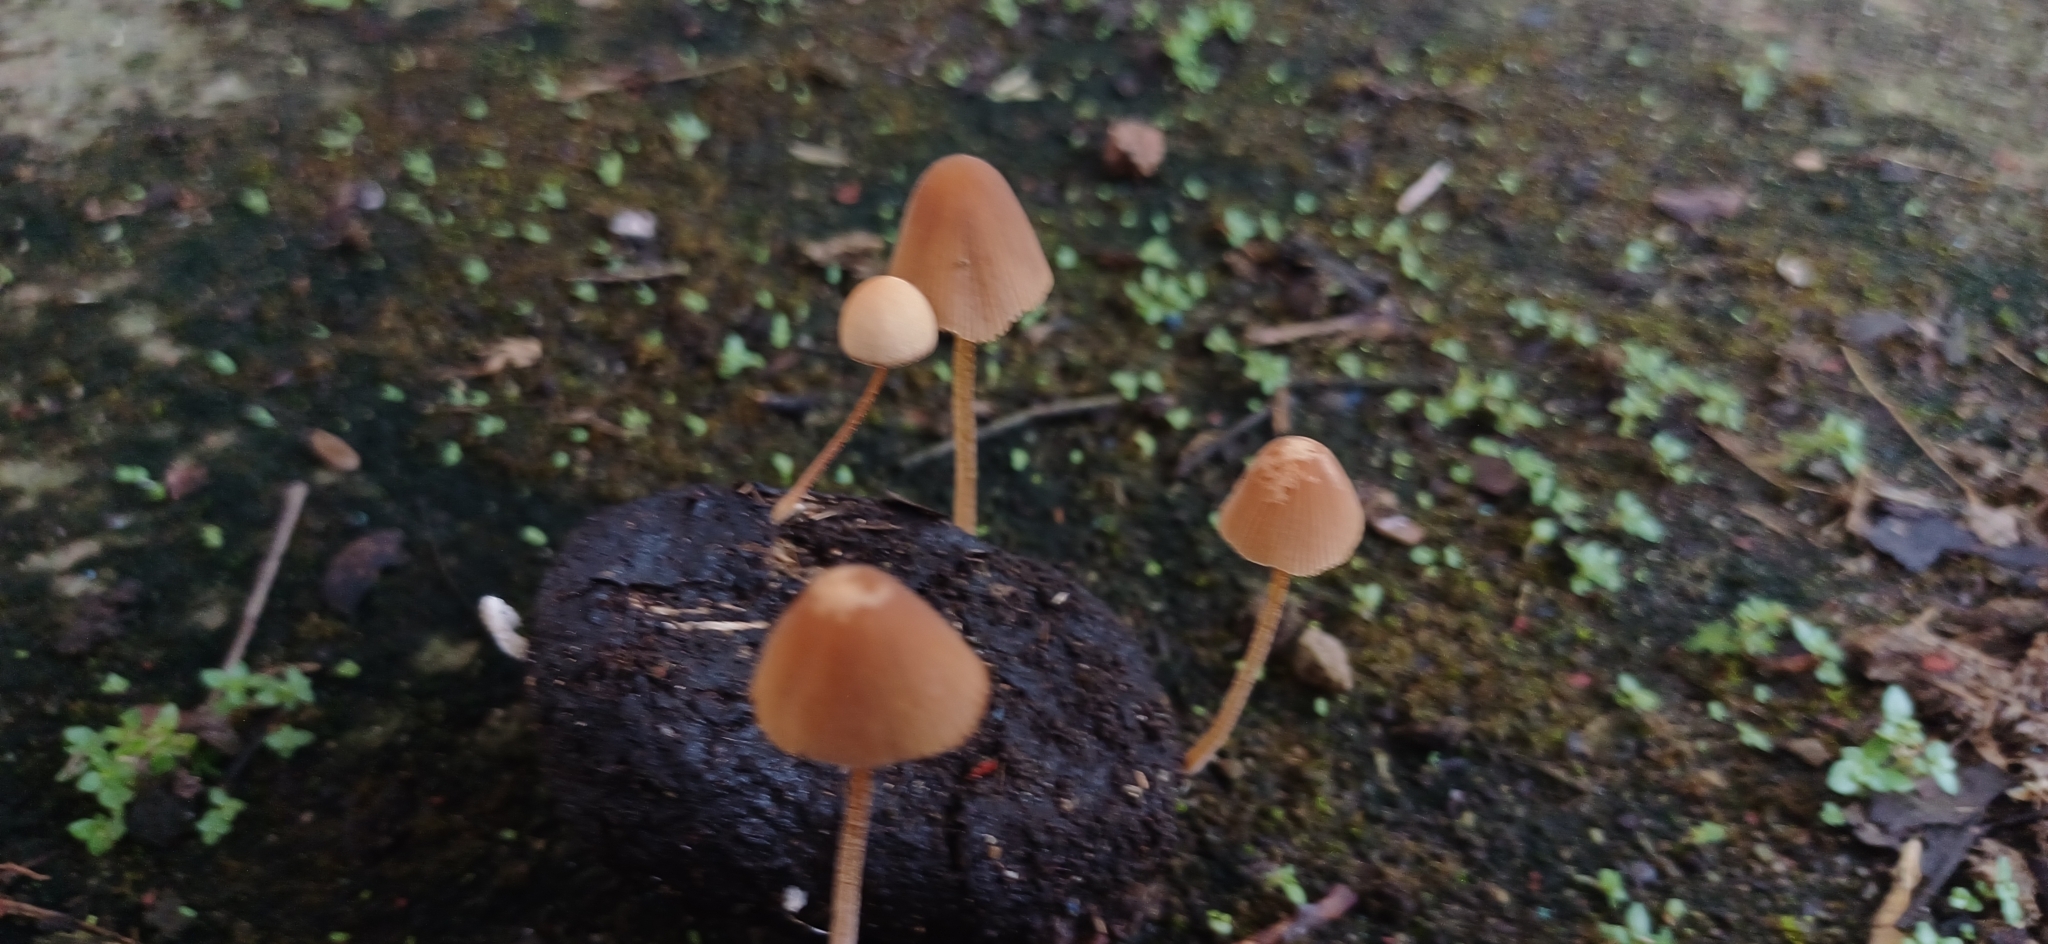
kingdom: Fungi
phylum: Basidiomycota
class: Agaricomycetes
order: Agaricales
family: Bolbitiaceae
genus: Conocybe
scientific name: Conocybe tenera
